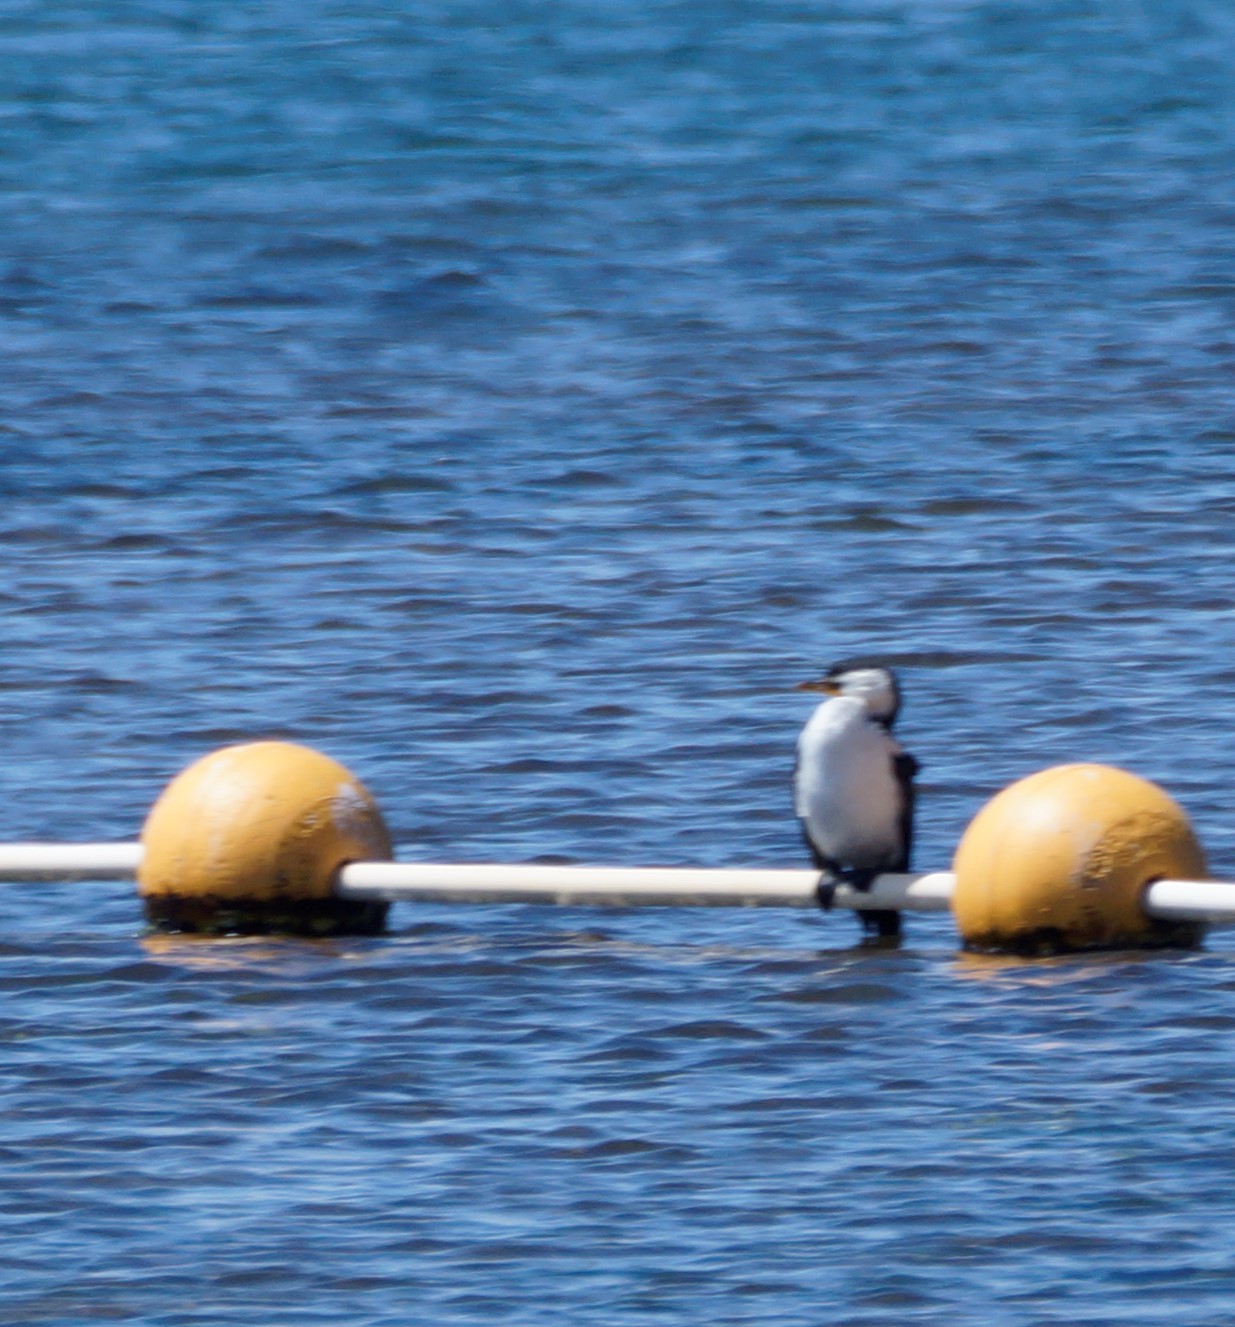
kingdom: Animalia
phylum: Chordata
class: Aves
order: Suliformes
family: Phalacrocoracidae
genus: Microcarbo
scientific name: Microcarbo melanoleucos
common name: Little pied cormorant
